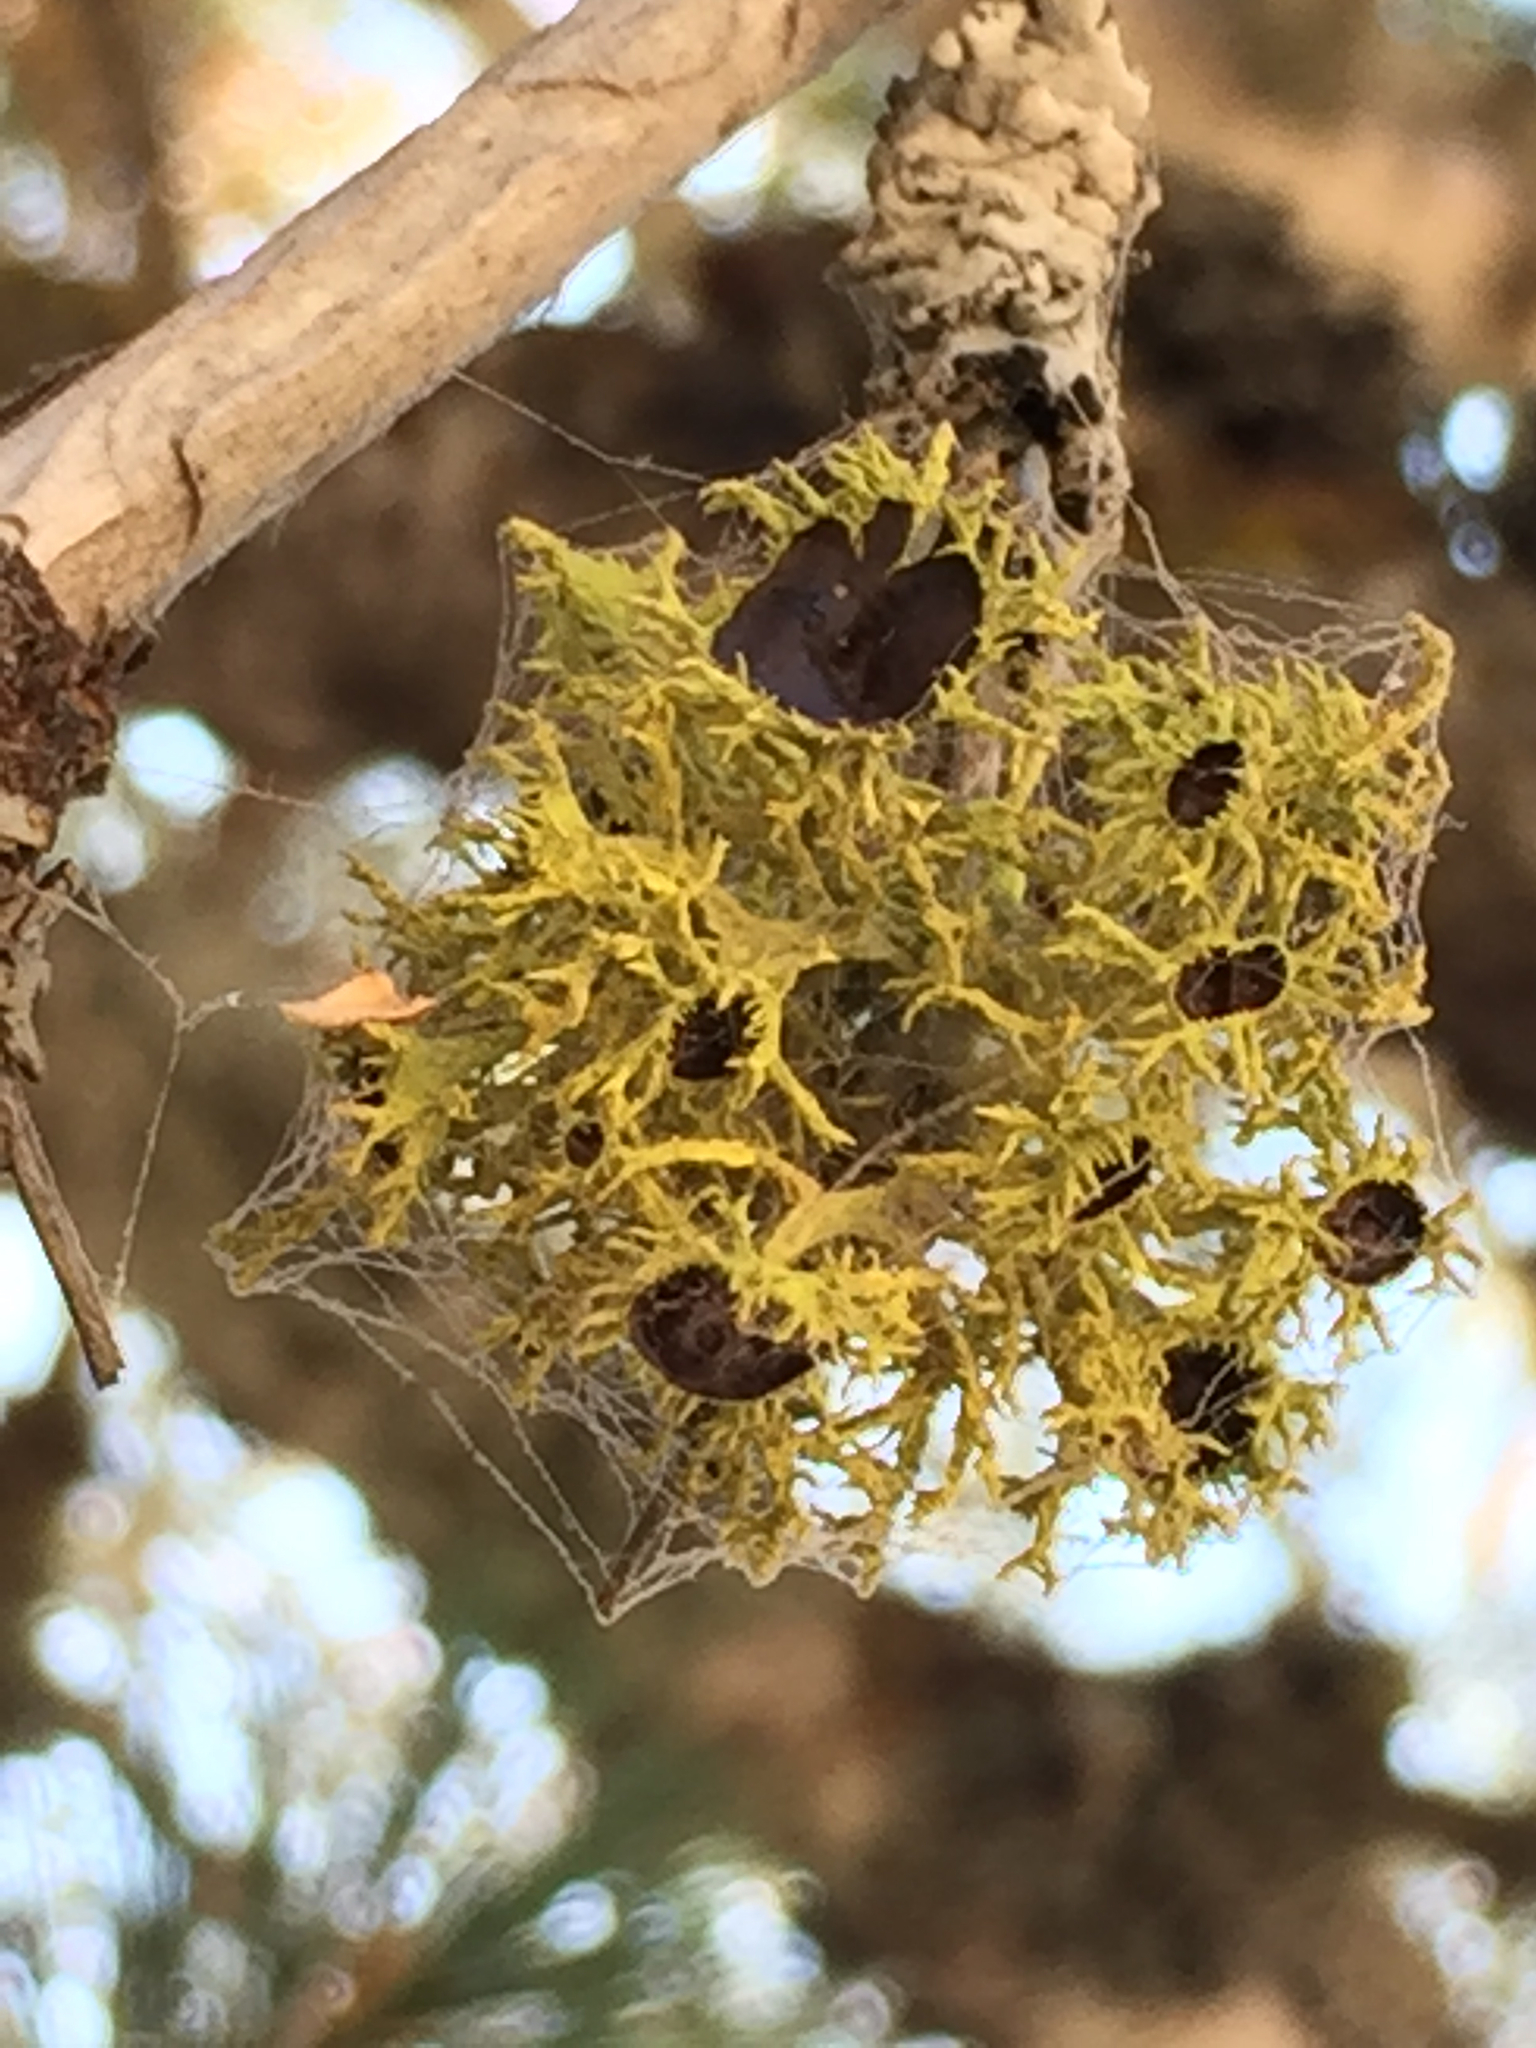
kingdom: Fungi
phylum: Ascomycota
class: Lecanoromycetes
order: Lecanorales
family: Parmeliaceae
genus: Letharia
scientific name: Letharia columbiana
